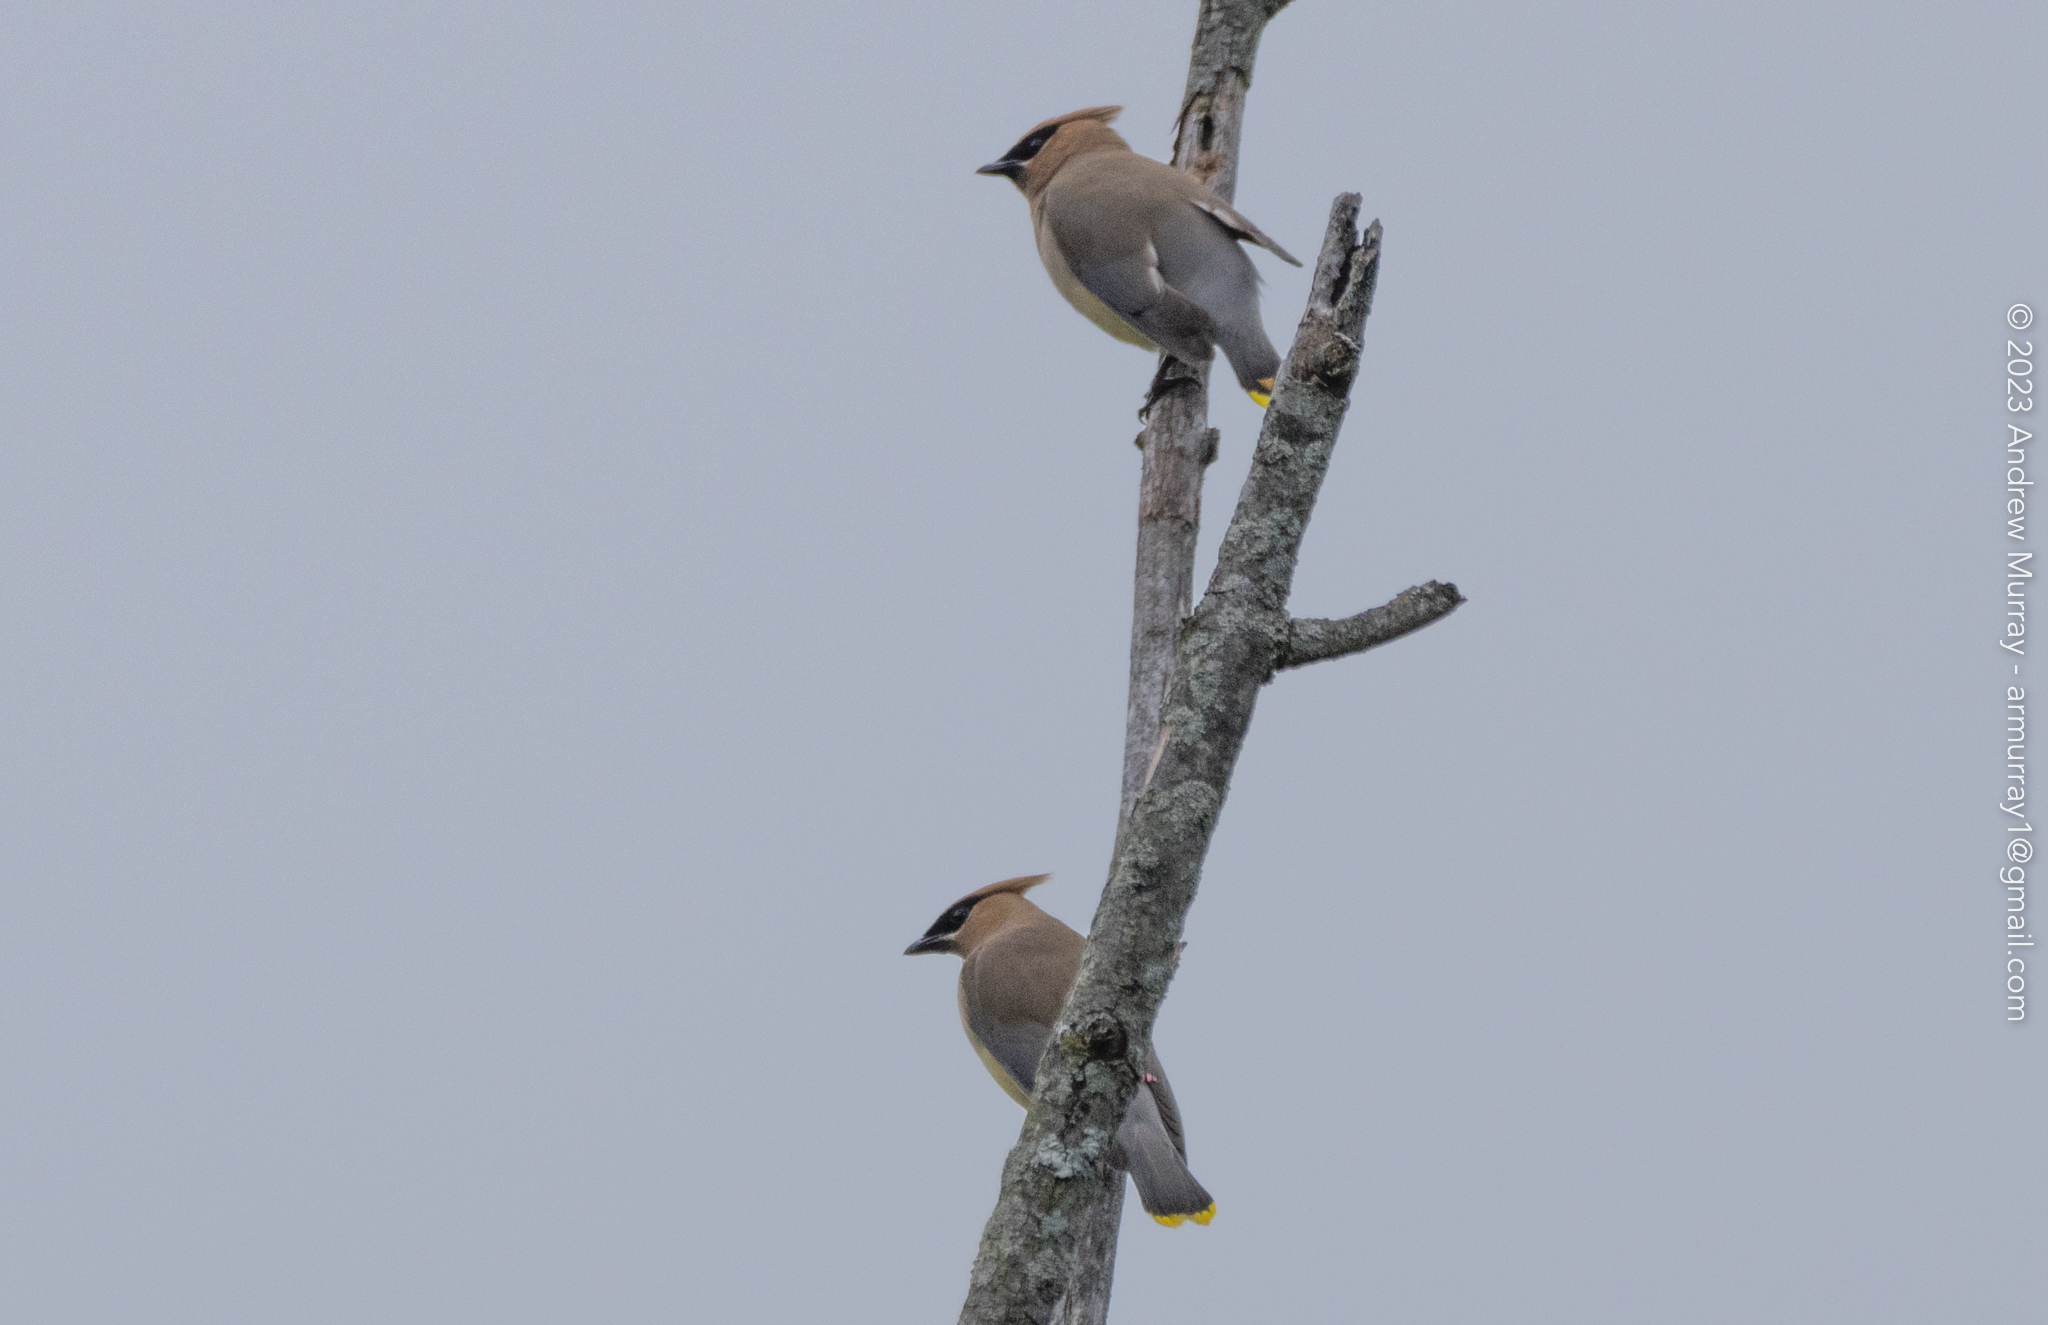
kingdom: Animalia
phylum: Chordata
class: Aves
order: Passeriformes
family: Bombycillidae
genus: Bombycilla
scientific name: Bombycilla cedrorum
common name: Cedar waxwing
